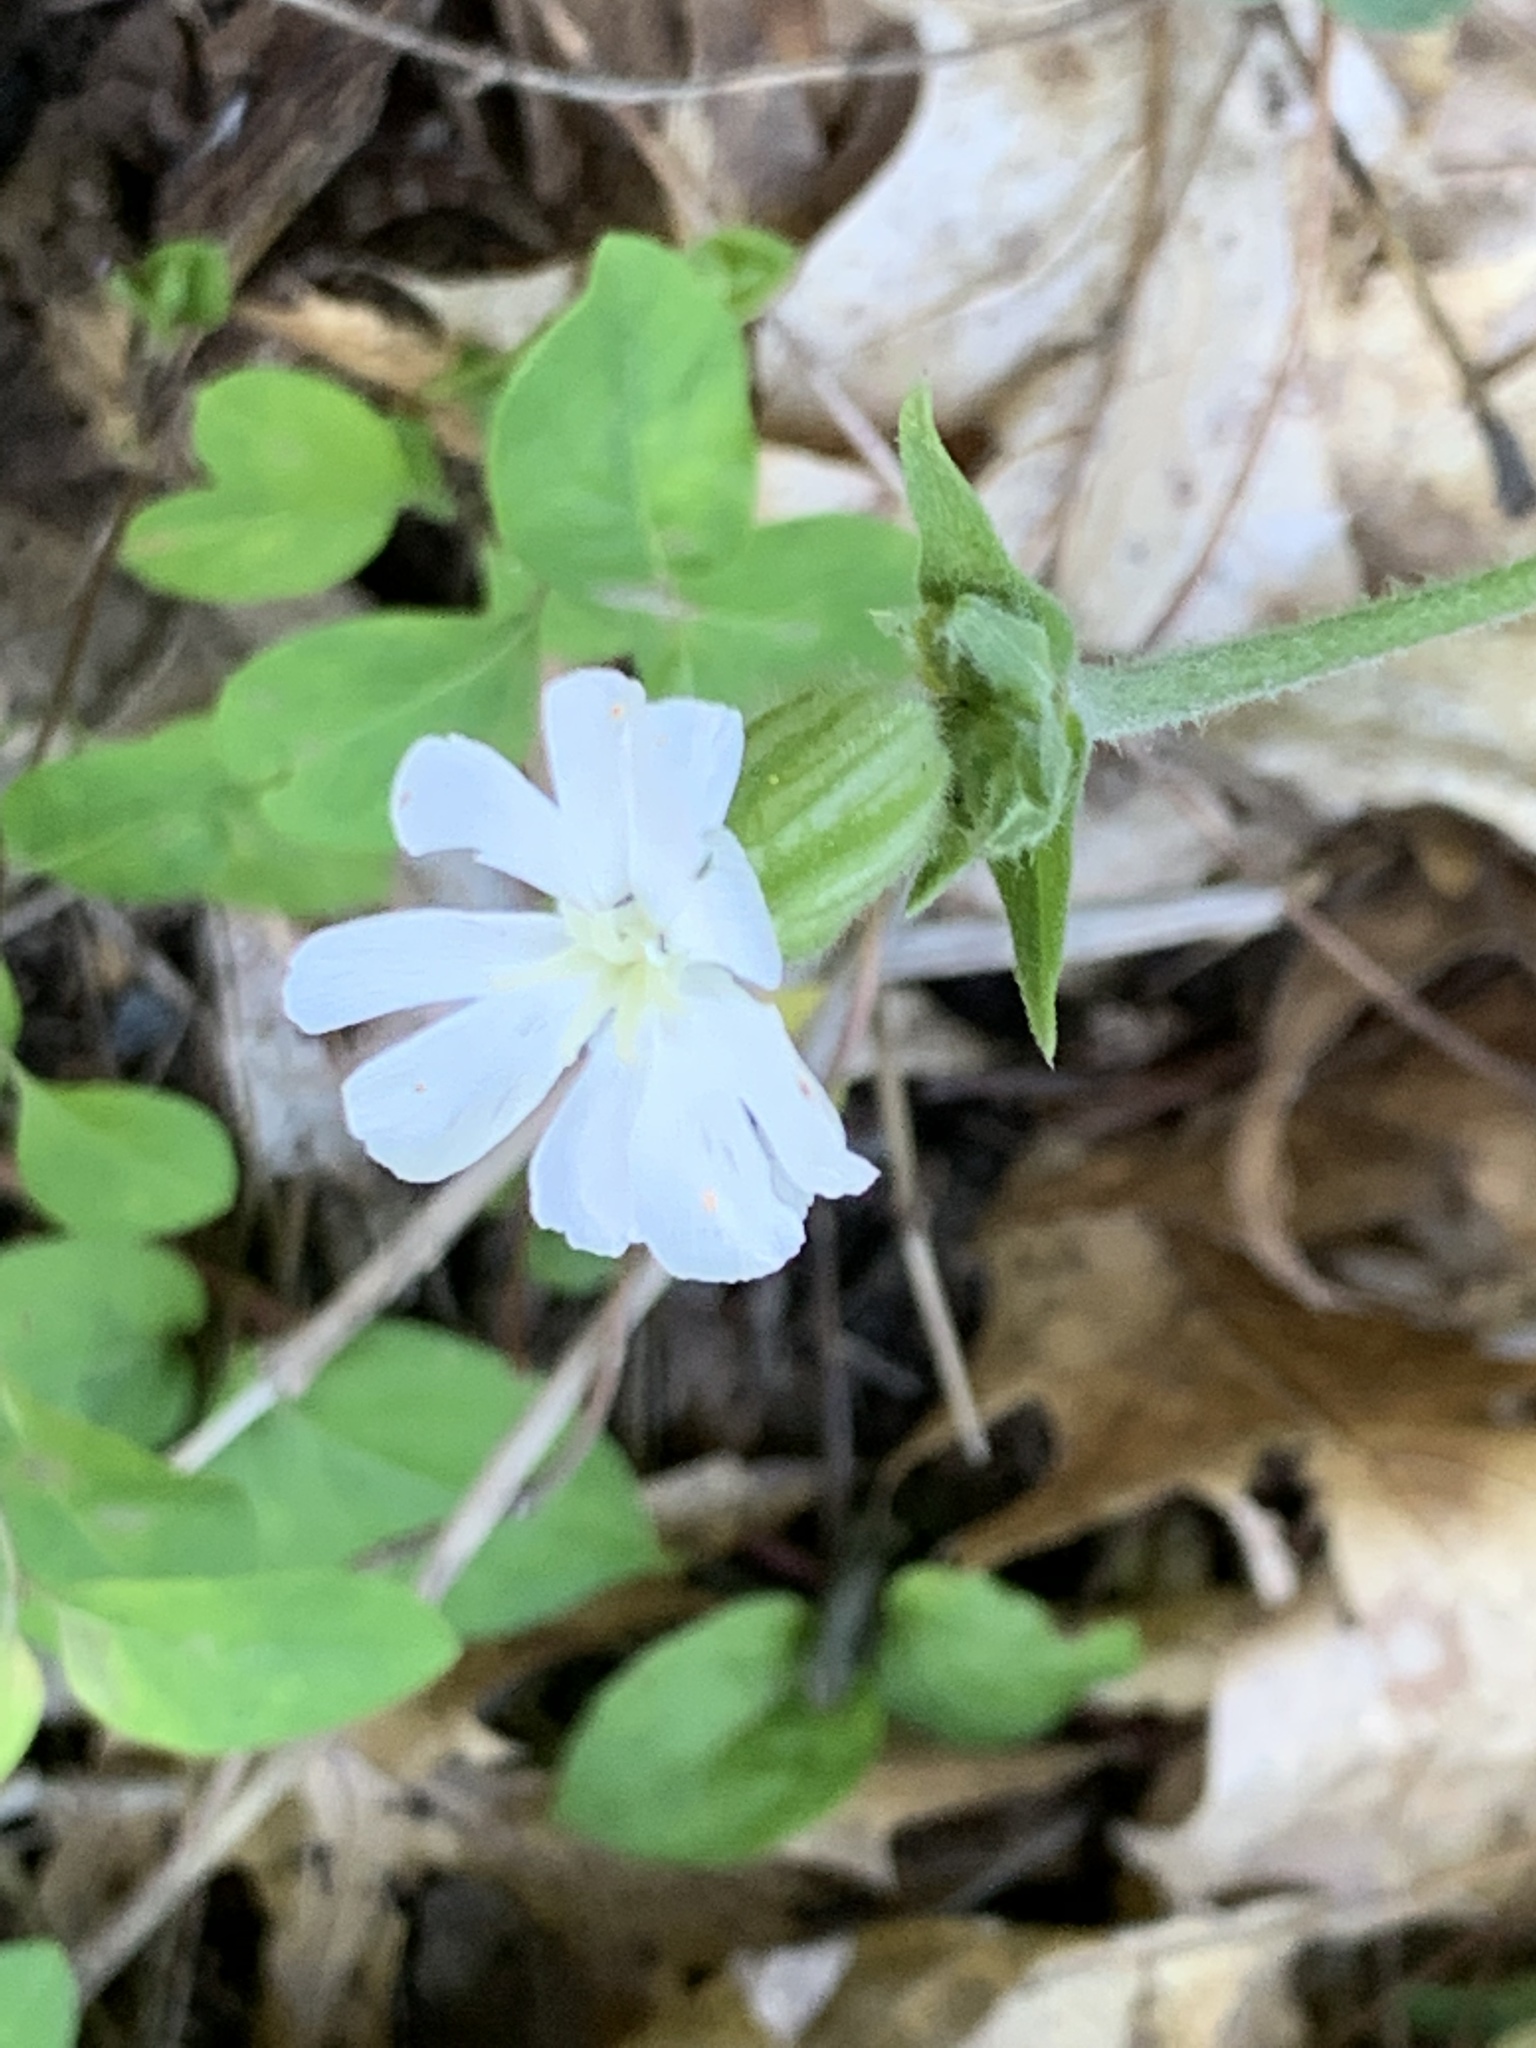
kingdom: Plantae
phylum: Tracheophyta
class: Magnoliopsida
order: Caryophyllales
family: Caryophyllaceae
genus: Silene
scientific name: Silene latifolia
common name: White campion
